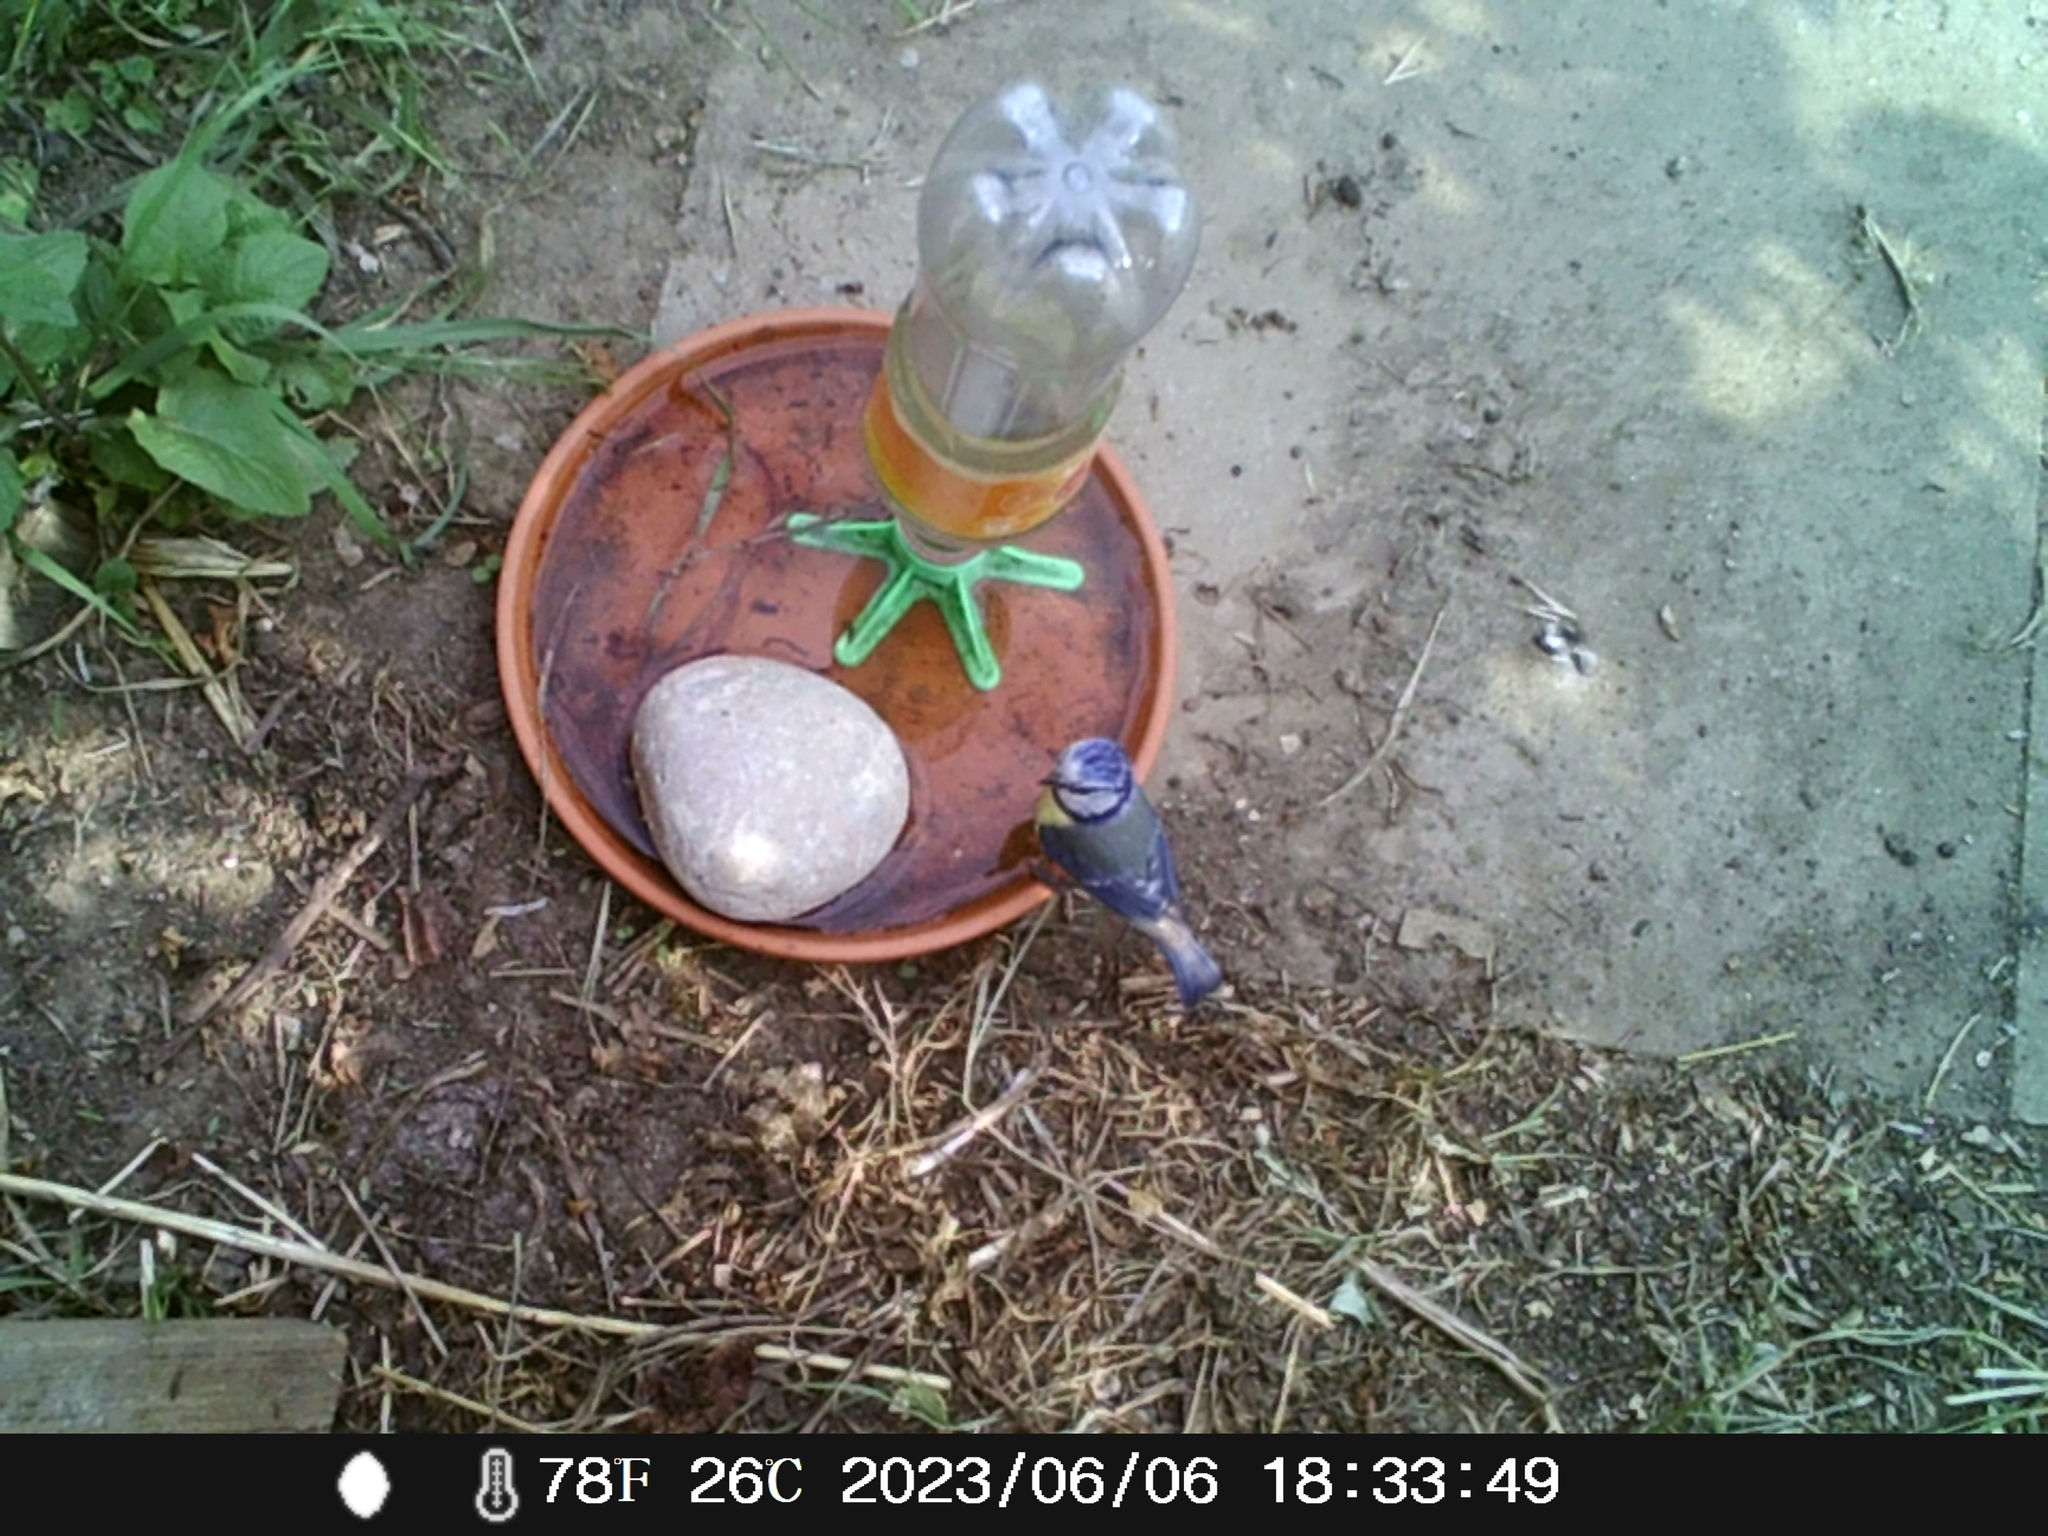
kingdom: Animalia
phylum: Chordata
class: Aves
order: Passeriformes
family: Paridae
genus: Cyanistes
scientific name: Cyanistes caeruleus
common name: Eurasian blue tit
